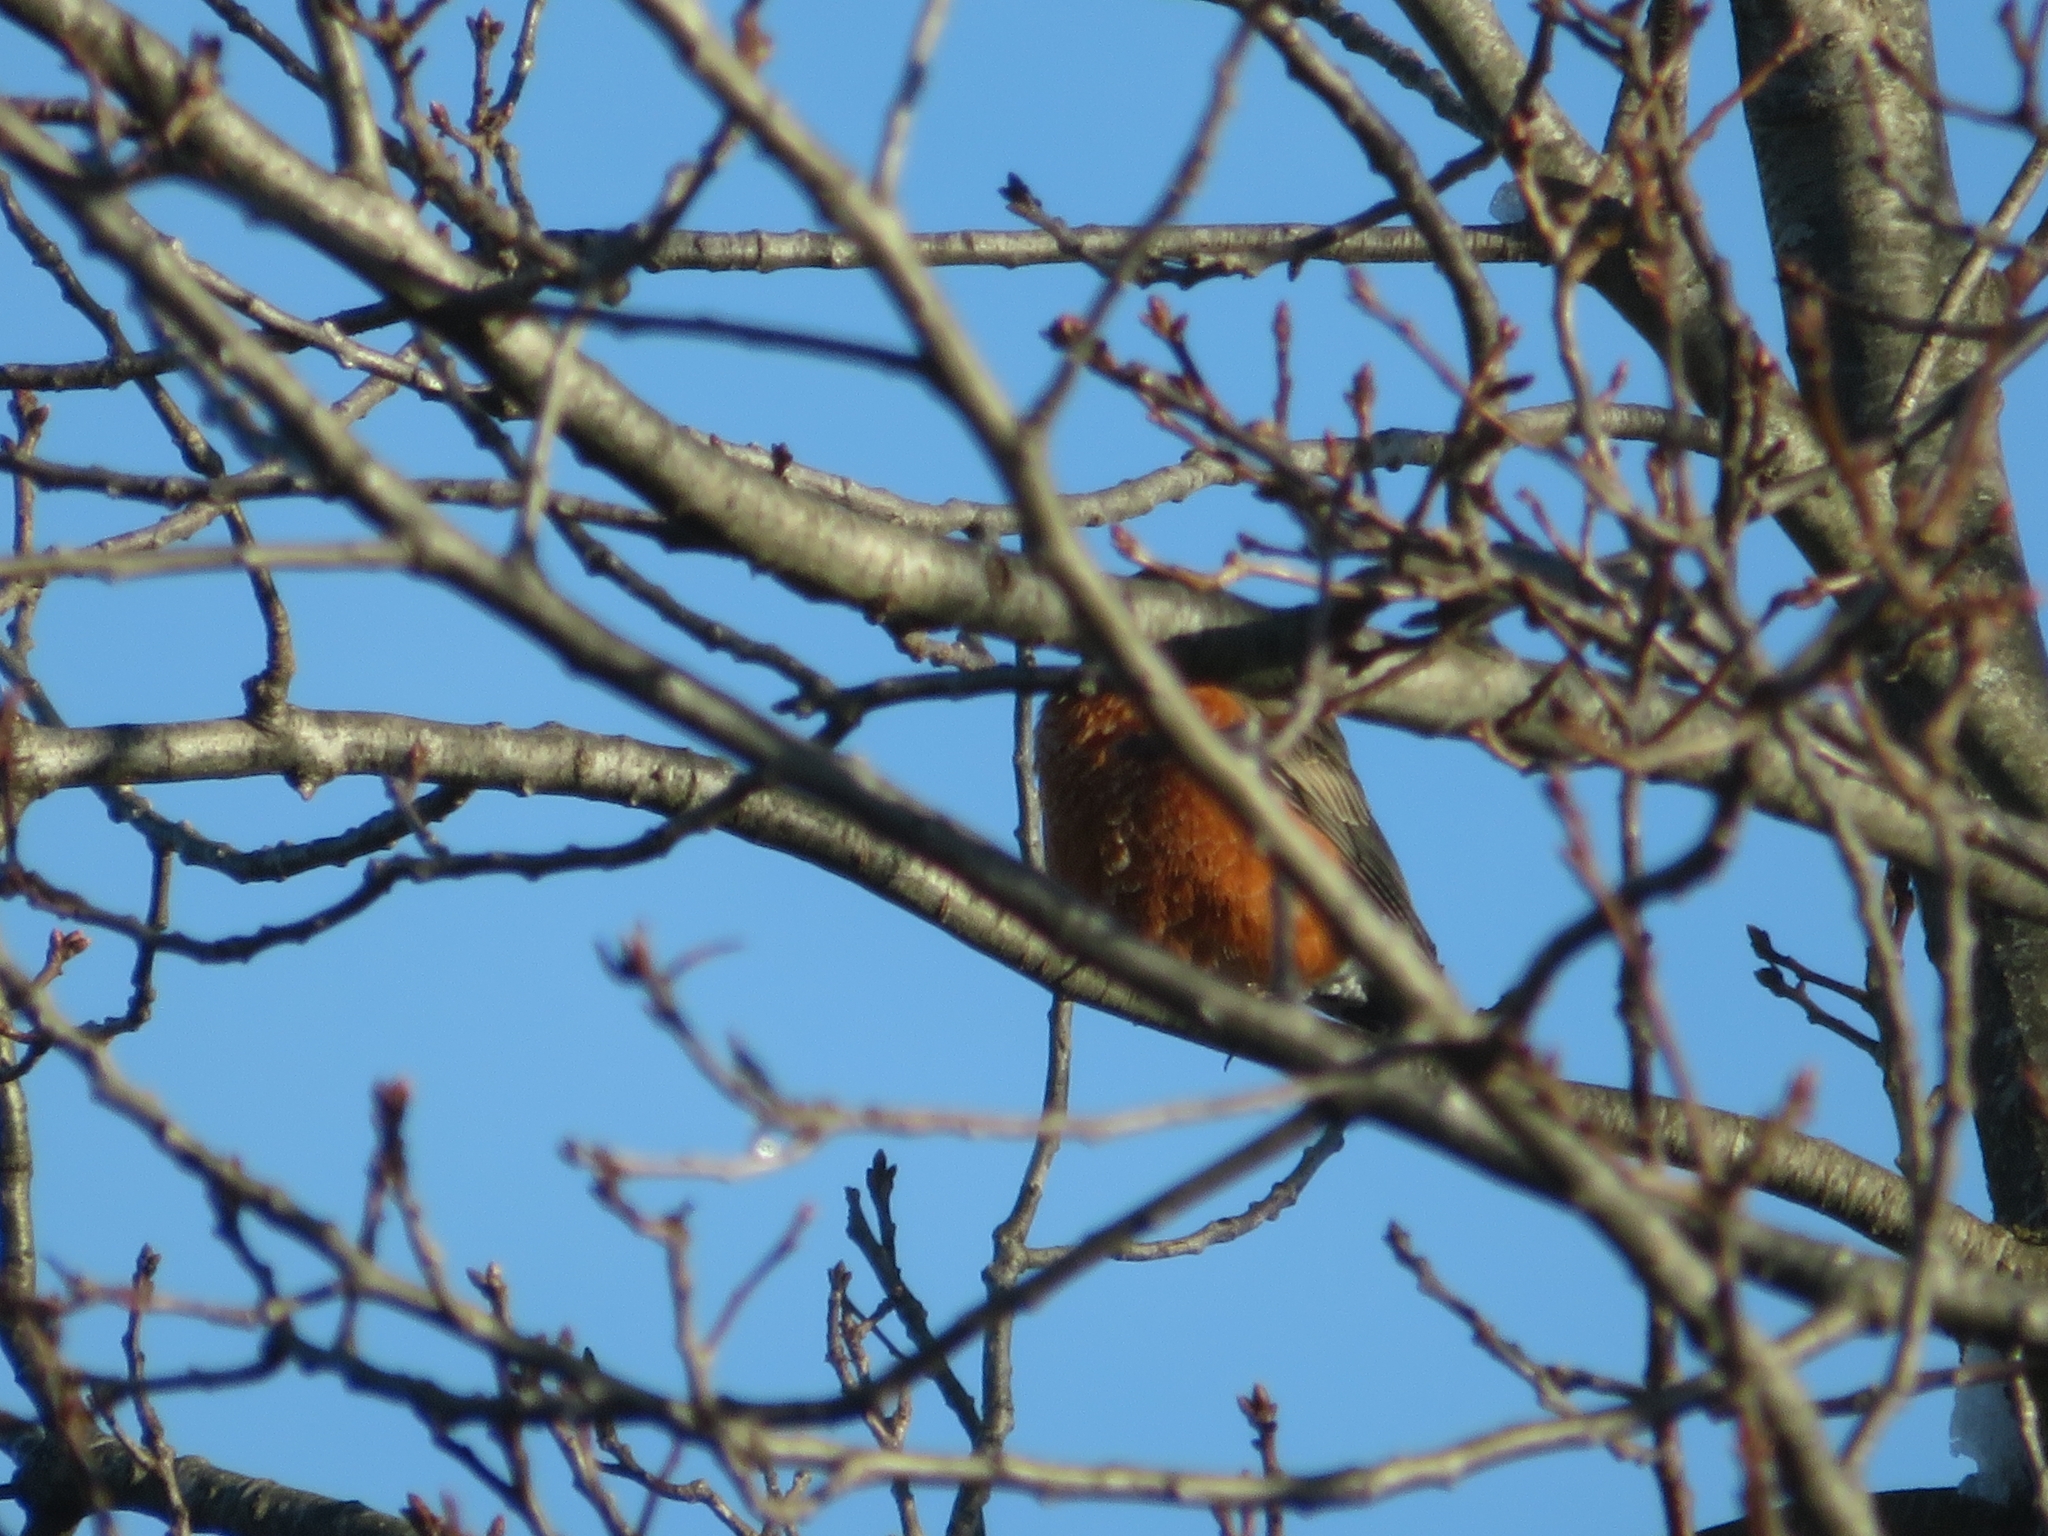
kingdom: Animalia
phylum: Chordata
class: Aves
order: Passeriformes
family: Turdidae
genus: Turdus
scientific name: Turdus migratorius
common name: American robin
